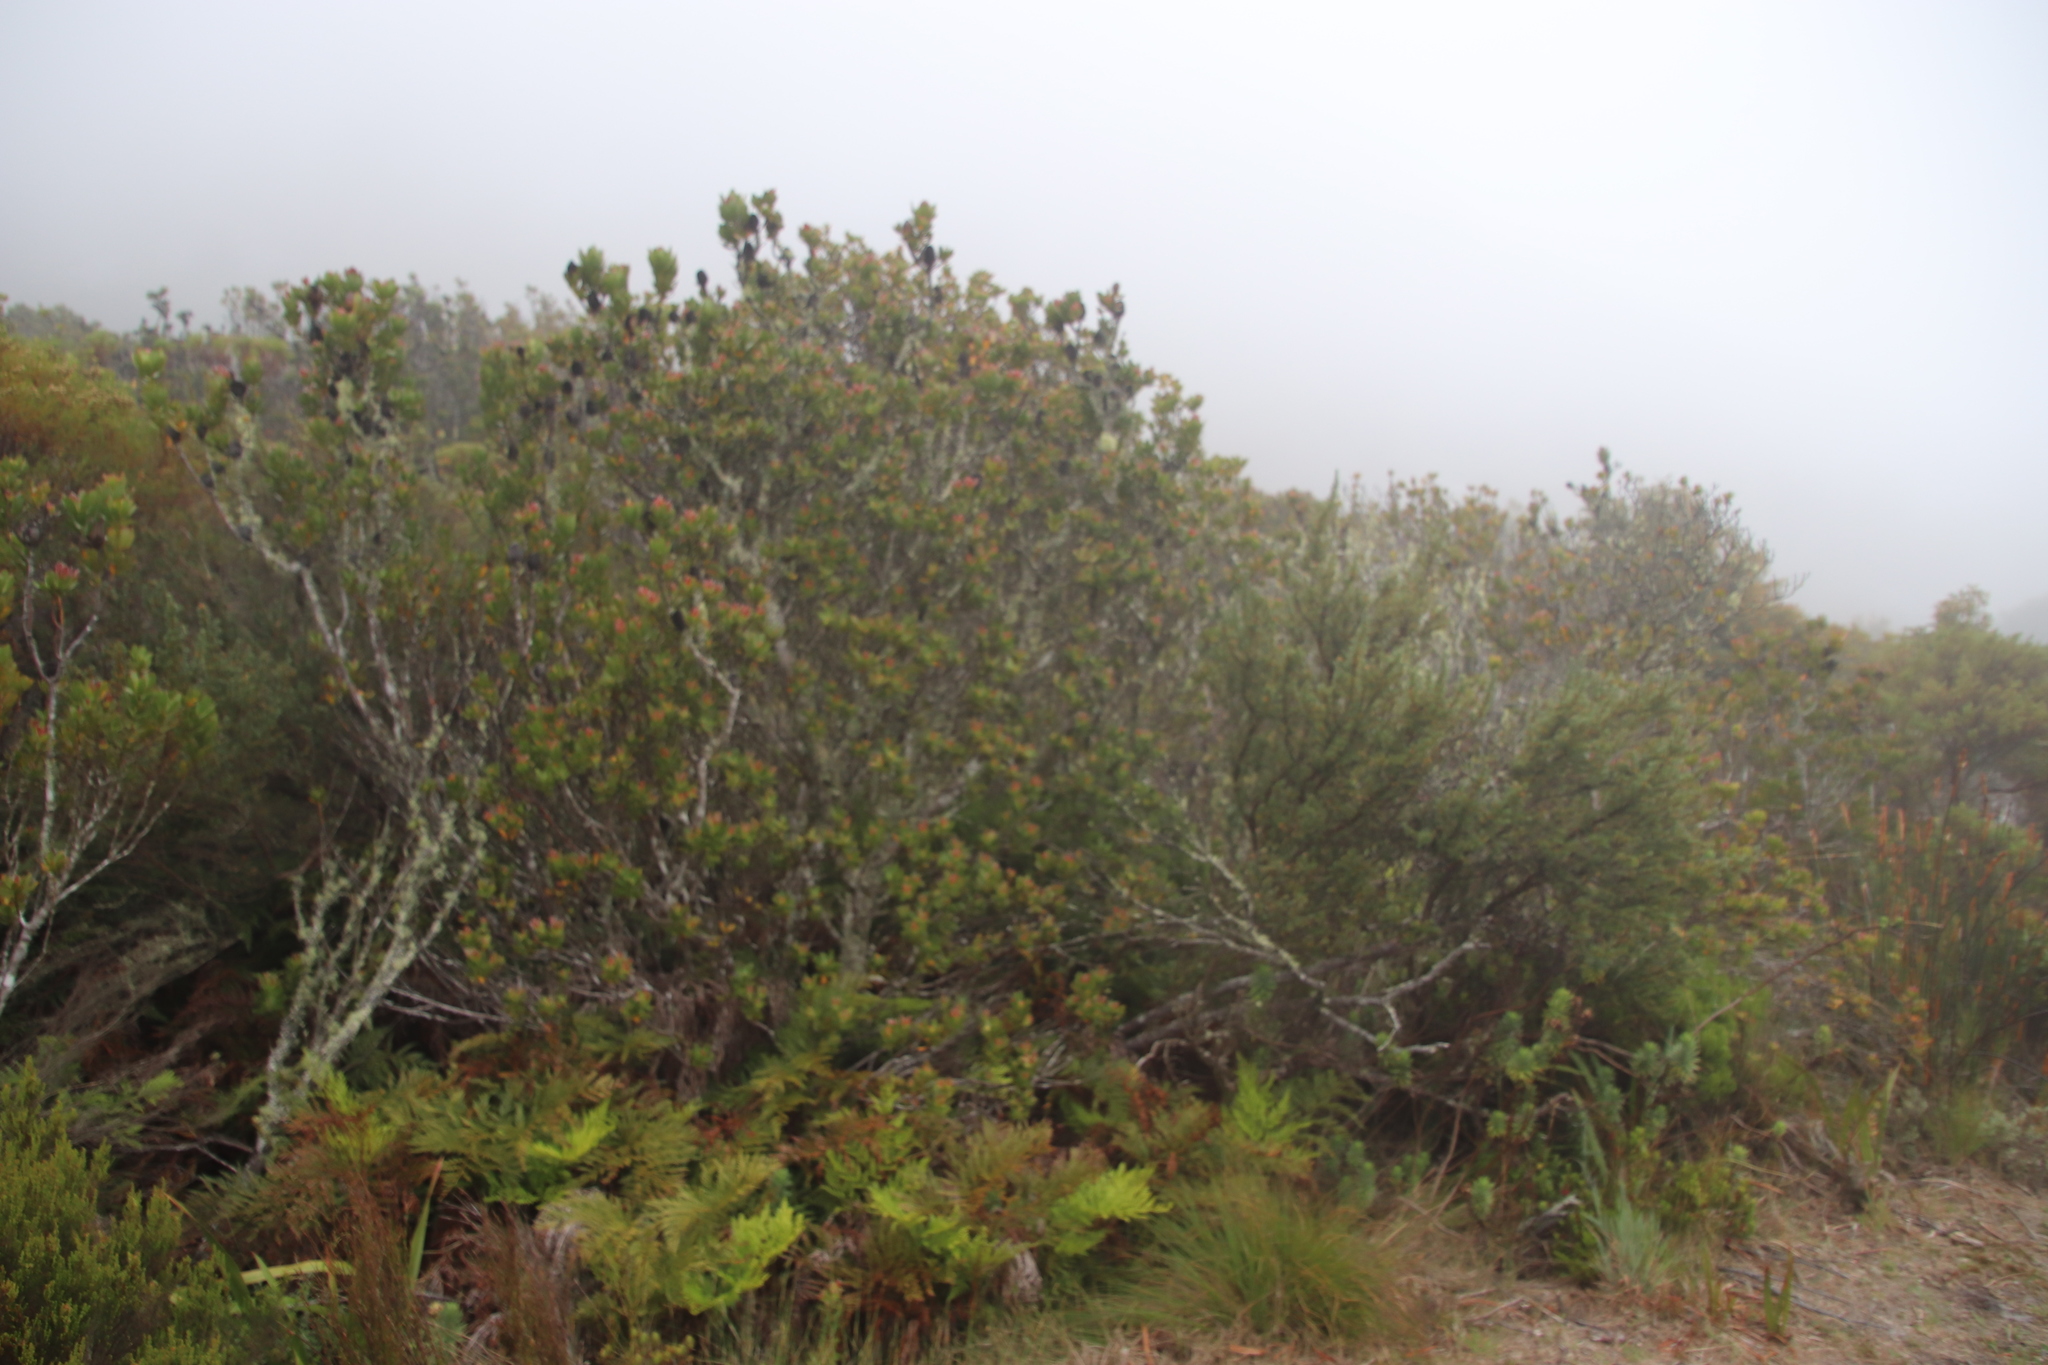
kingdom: Plantae
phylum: Tracheophyta
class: Magnoliopsida
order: Proteales
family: Proteaceae
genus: Leucadendron
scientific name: Leucadendron strobilinum
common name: Mountain rose
